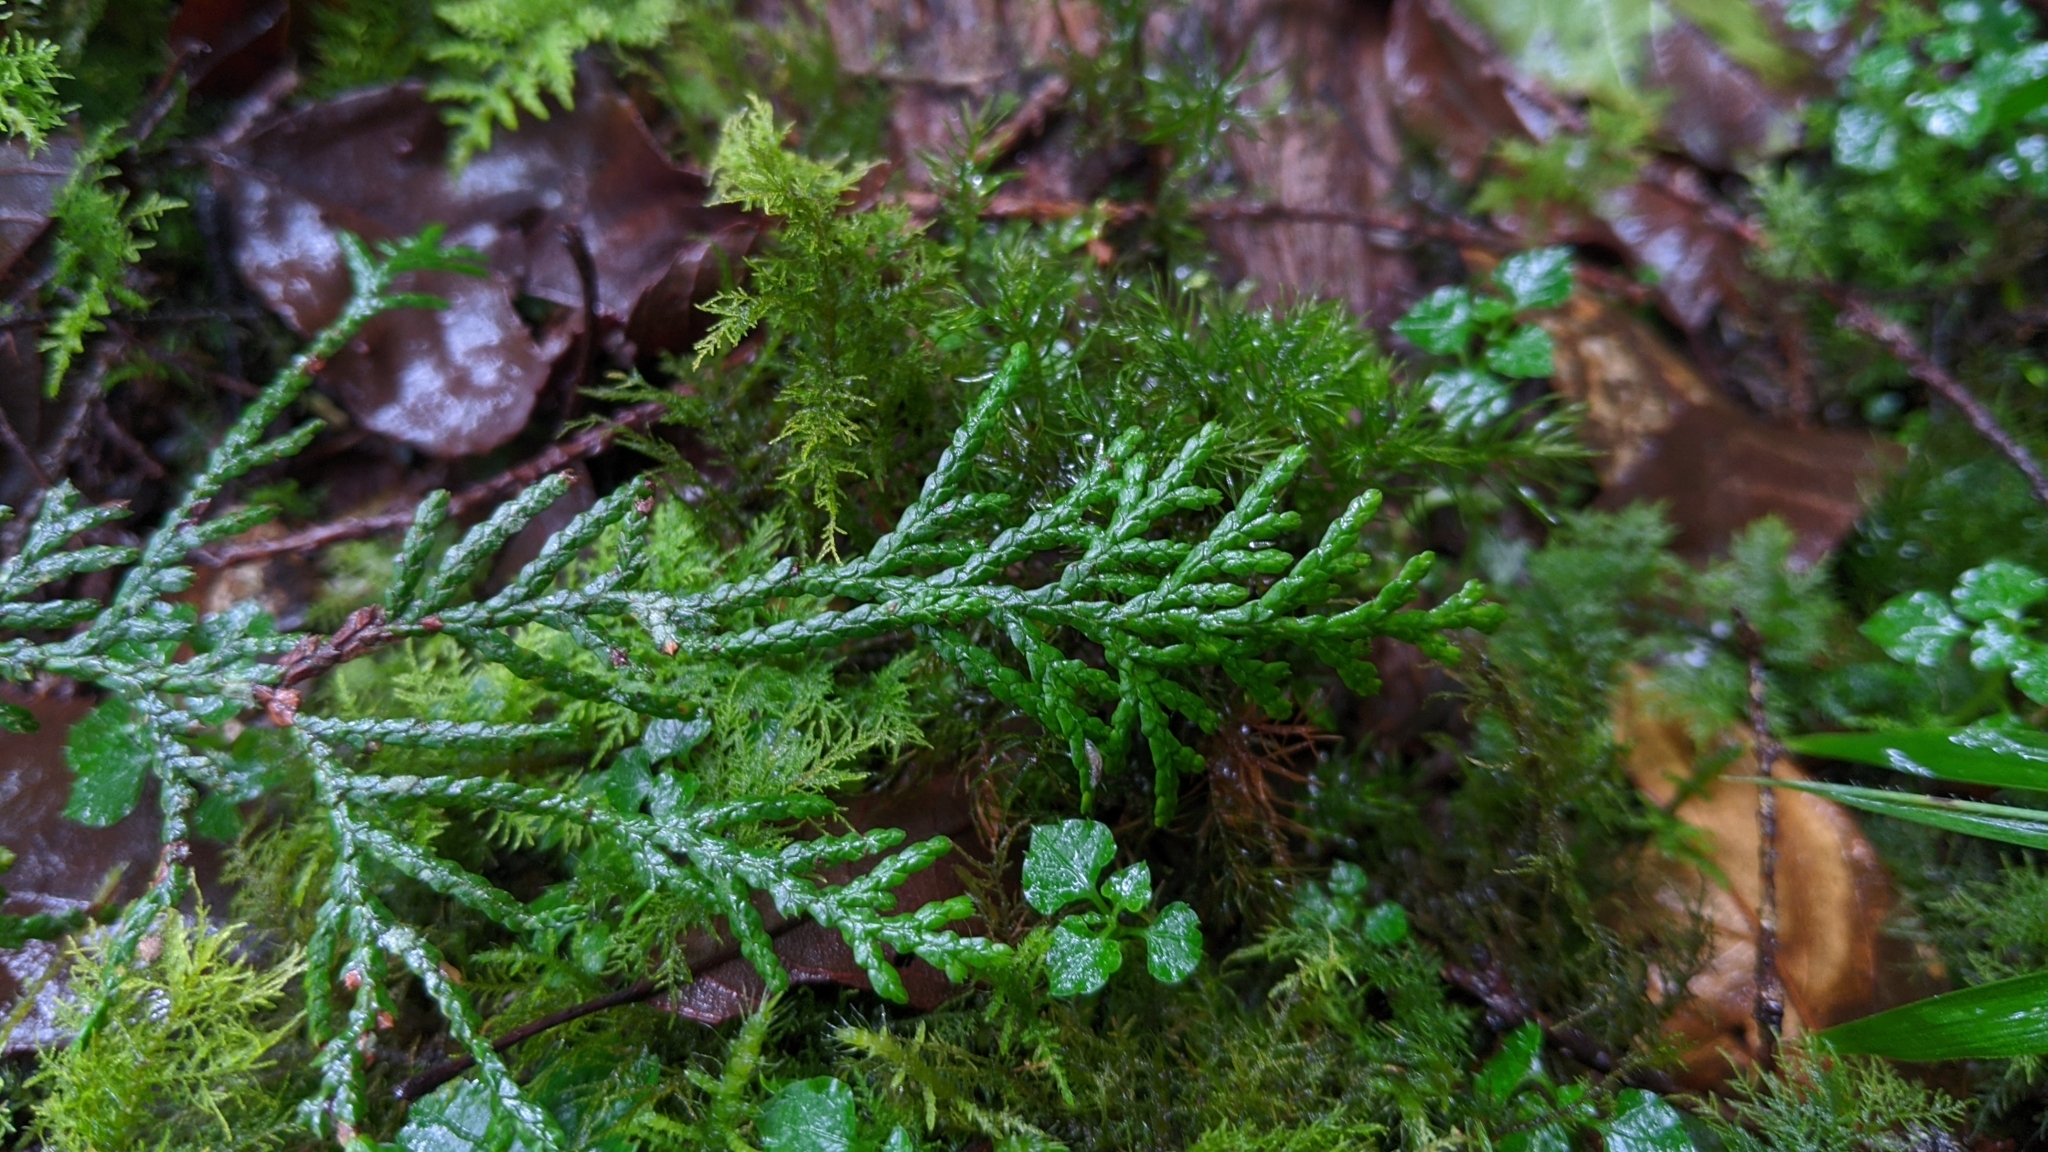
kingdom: Plantae
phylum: Tracheophyta
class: Pinopsida
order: Pinales
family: Cupressaceae
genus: Chamaecyparis
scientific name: Chamaecyparis obtusa
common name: Hinoki false cypress
